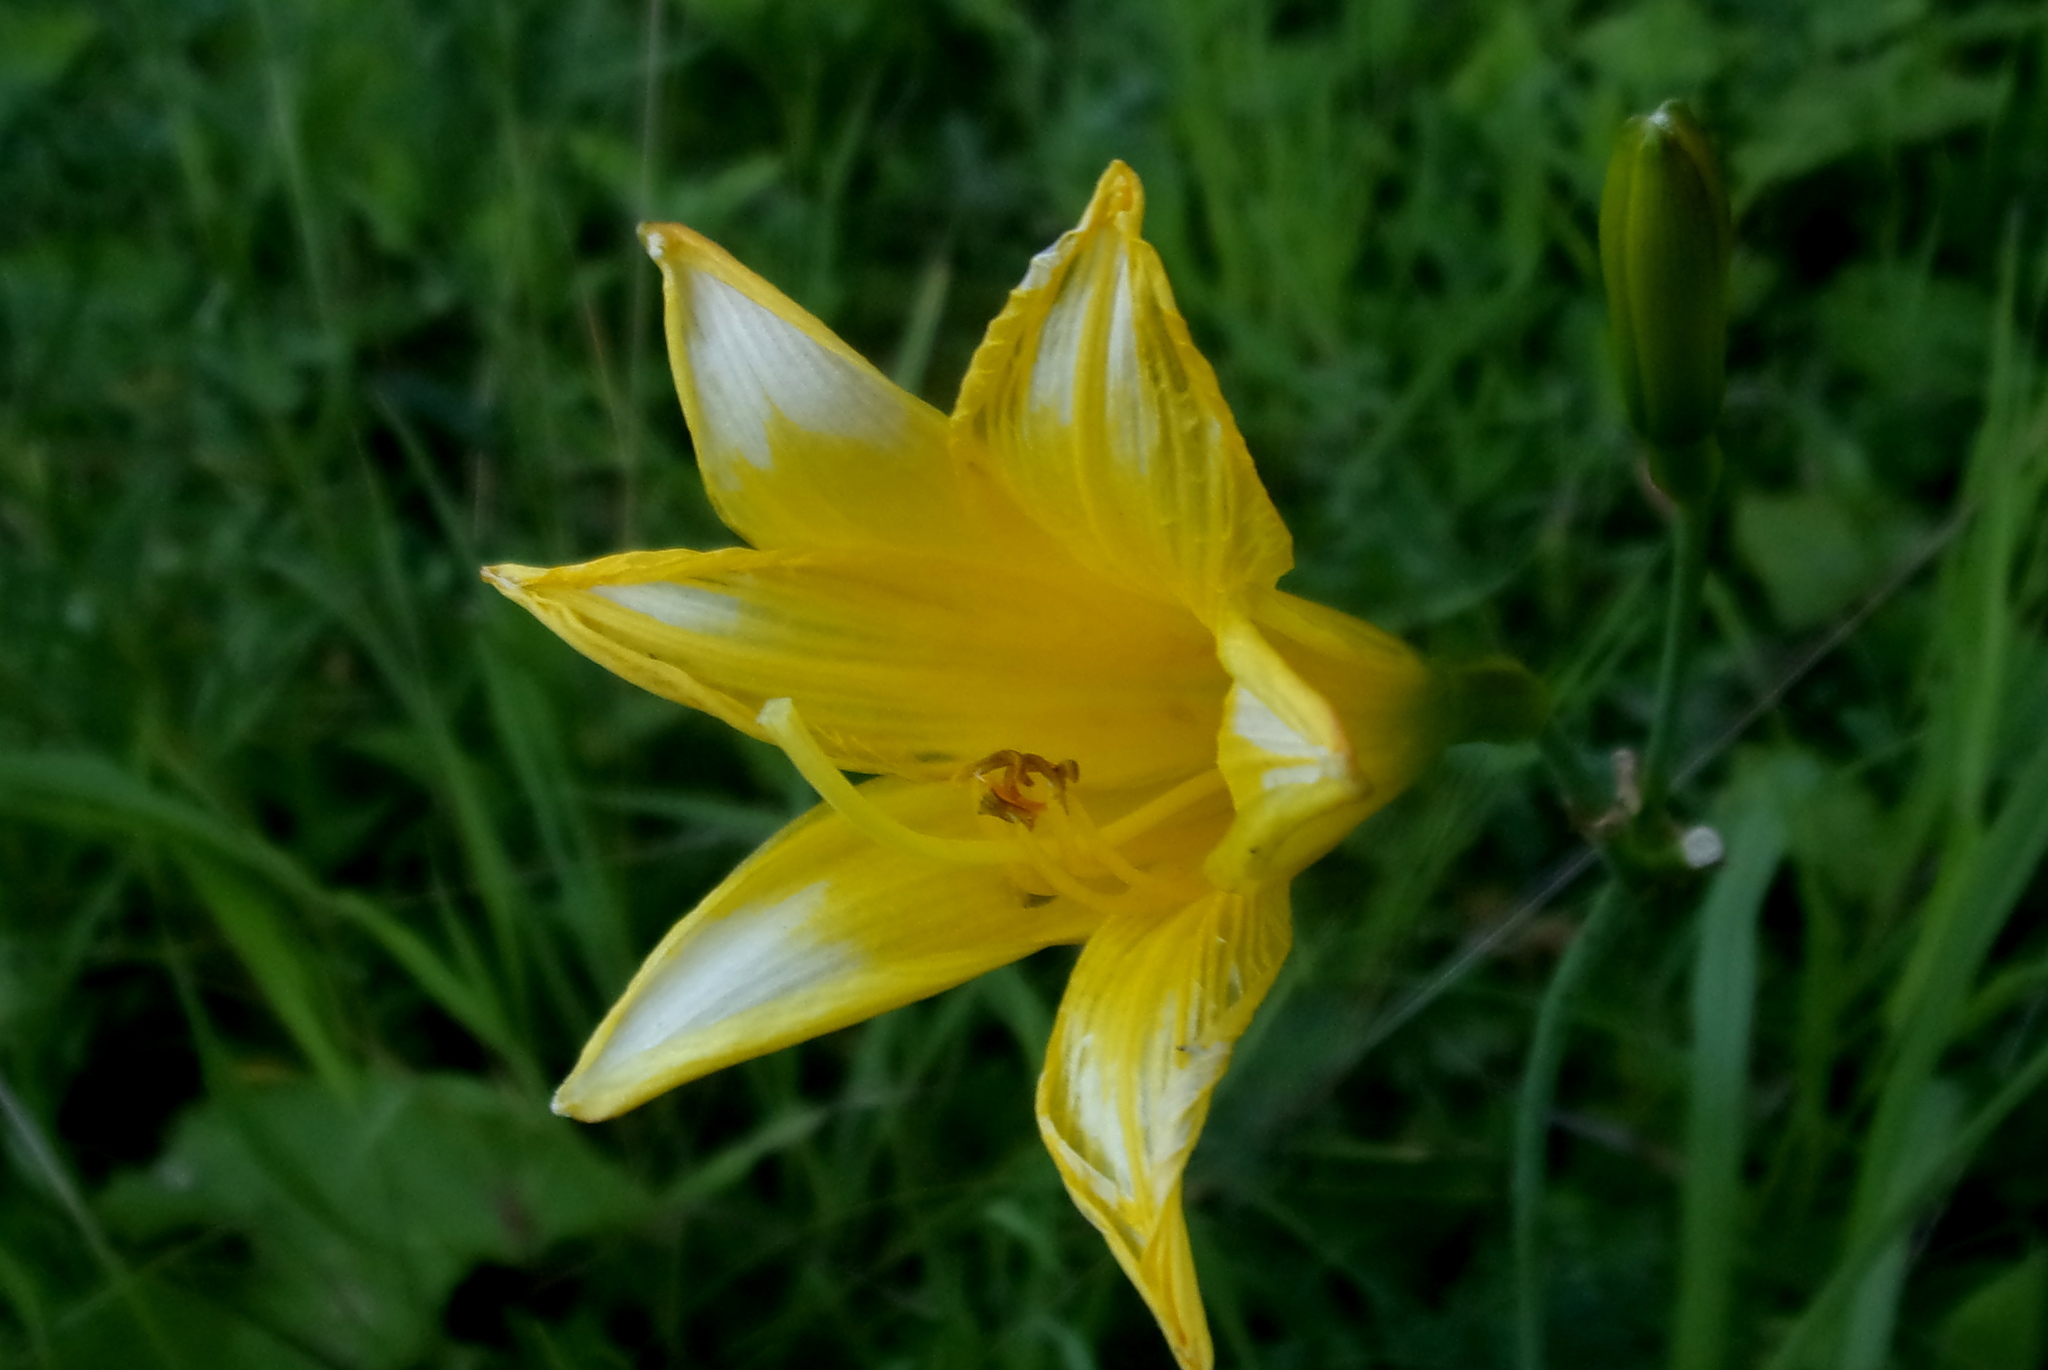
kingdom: Plantae
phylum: Tracheophyta
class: Liliopsida
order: Asparagales
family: Asphodelaceae
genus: Hemerocallis
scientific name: Hemerocallis minor
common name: Small daylily
